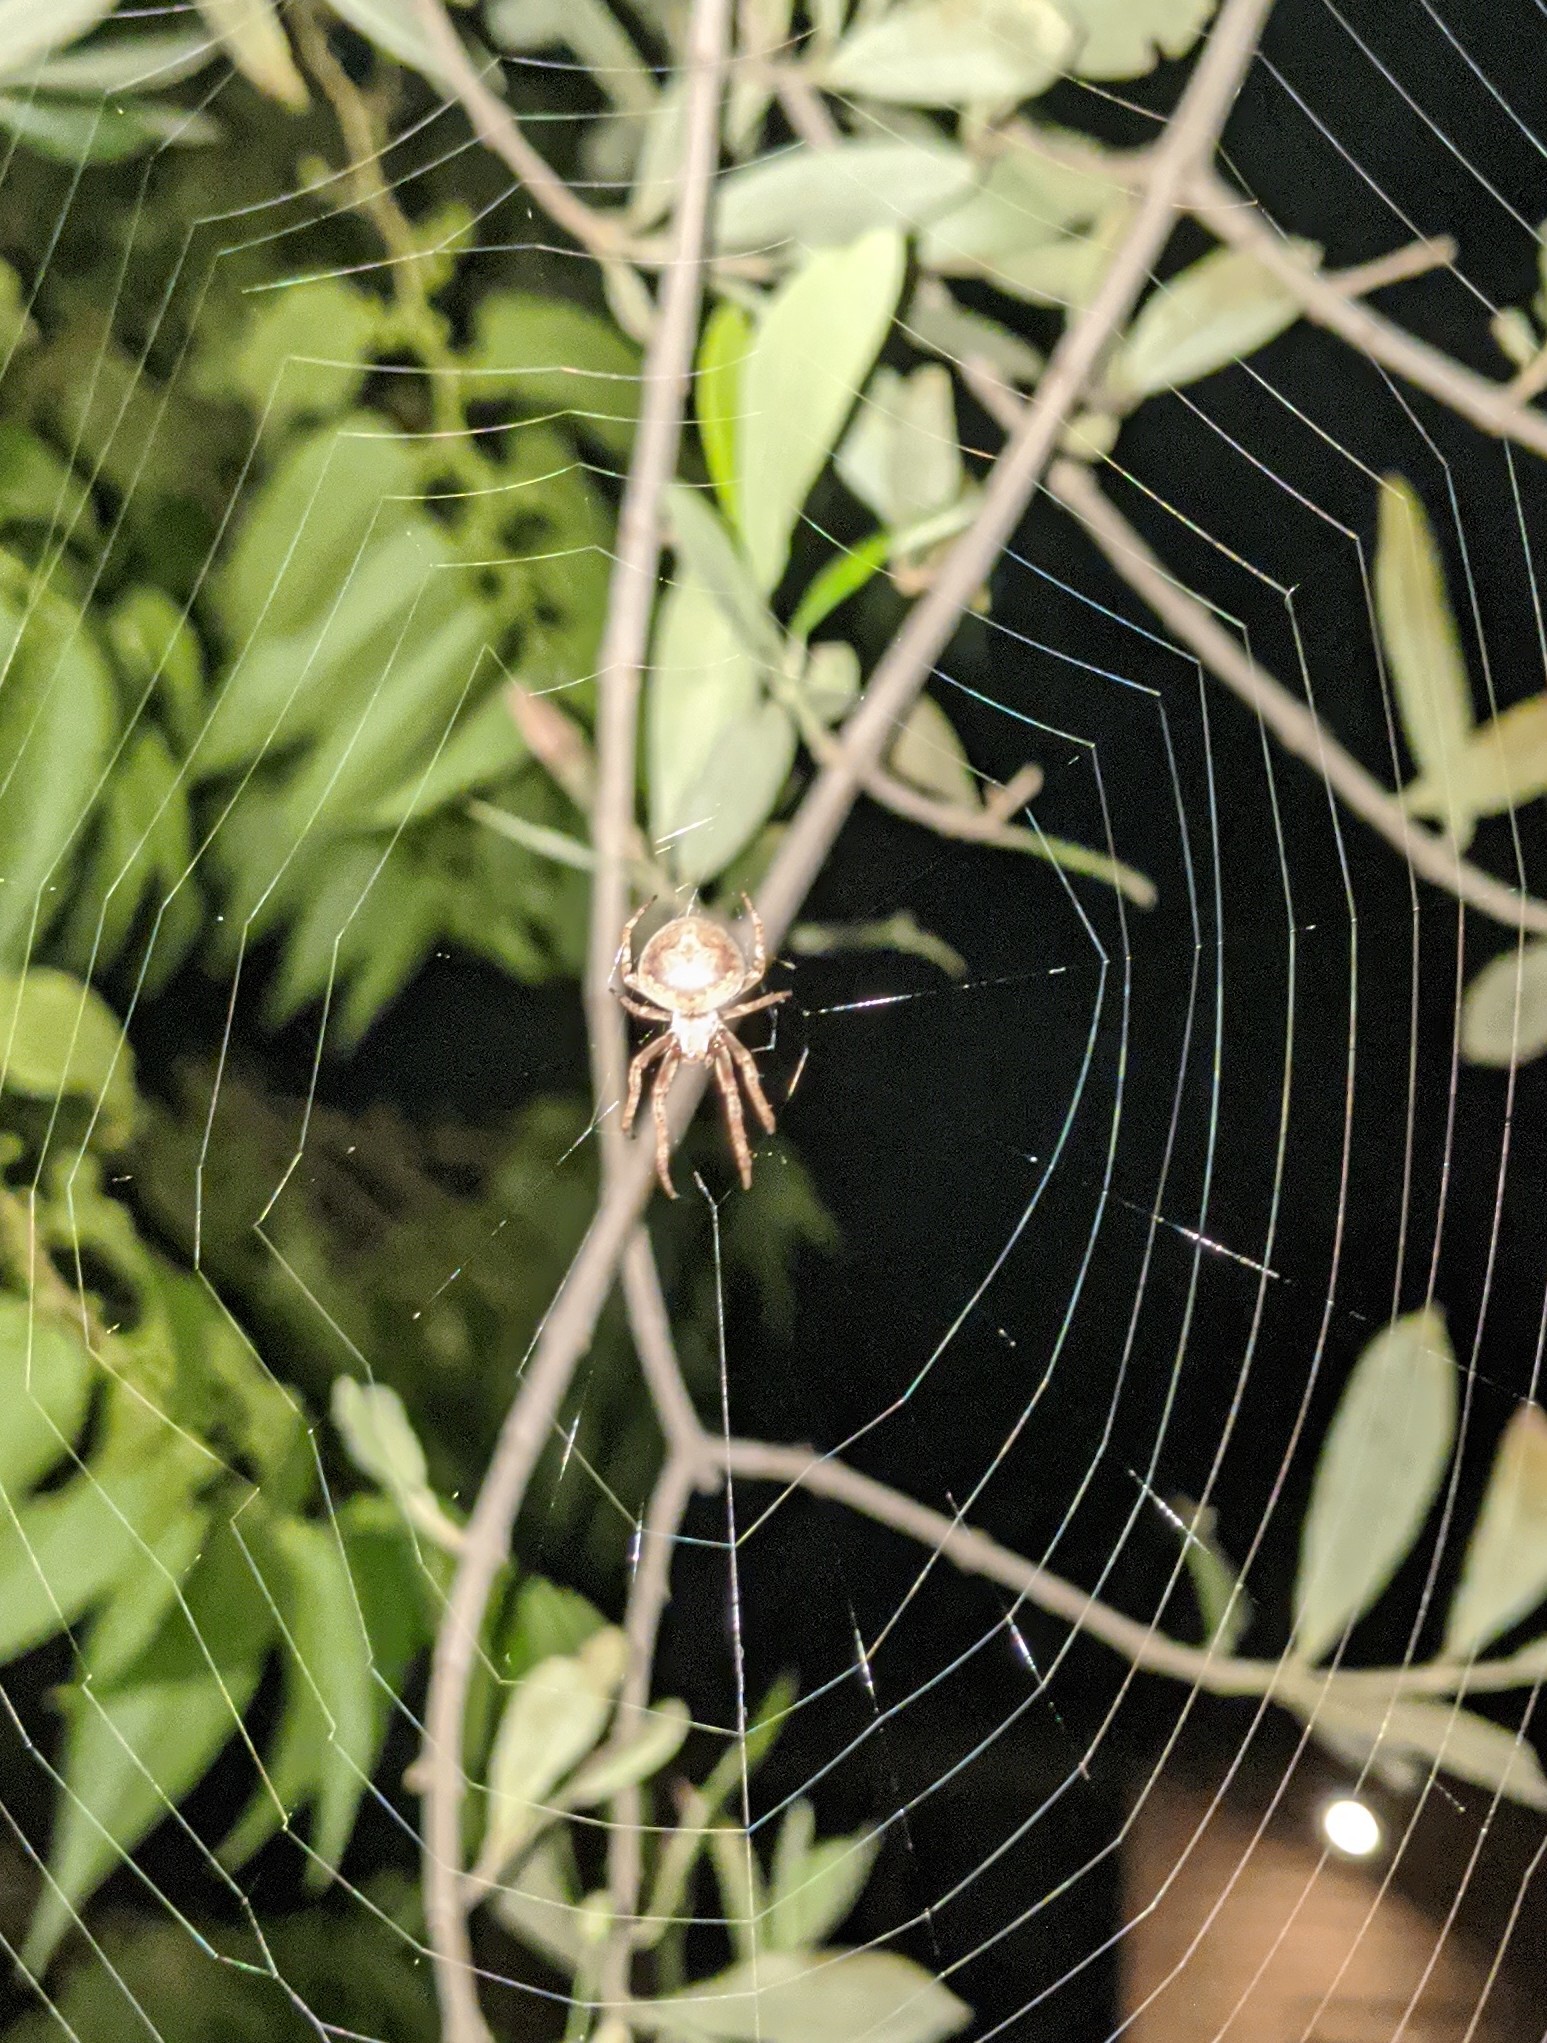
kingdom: Animalia
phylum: Arthropoda
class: Arachnida
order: Araneae
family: Araneidae
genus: Hortophora
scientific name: Hortophora transmarina
